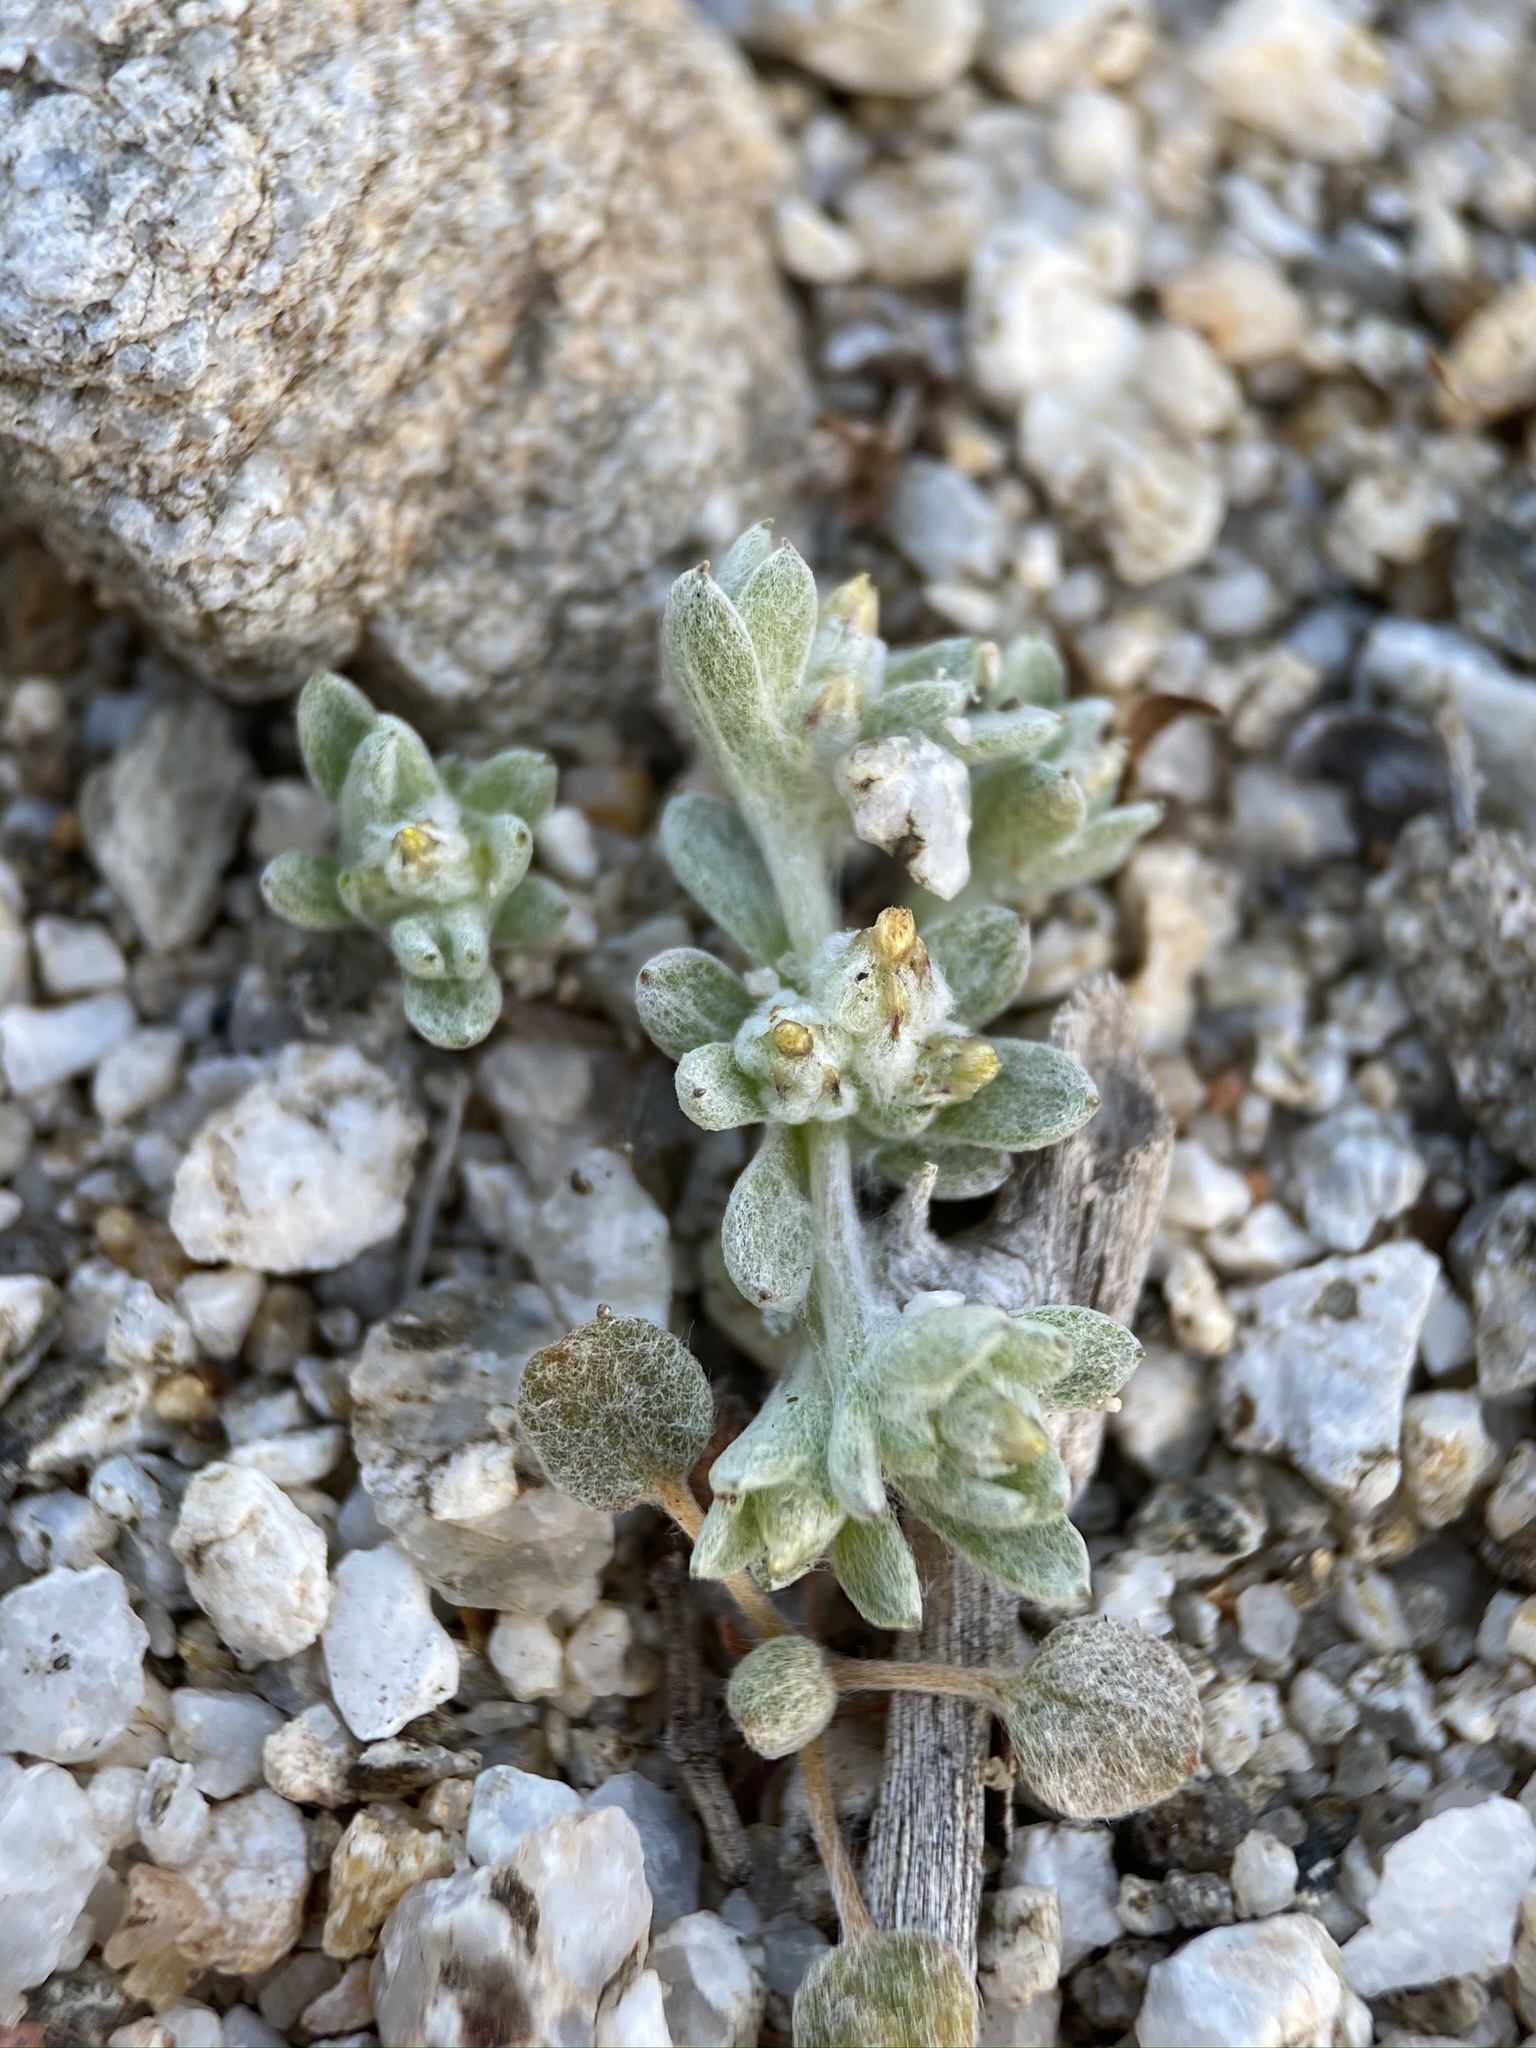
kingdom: Plantae
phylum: Tracheophyta
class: Magnoliopsida
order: Asterales
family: Asteraceae
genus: Logfia
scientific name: Logfia depressa
